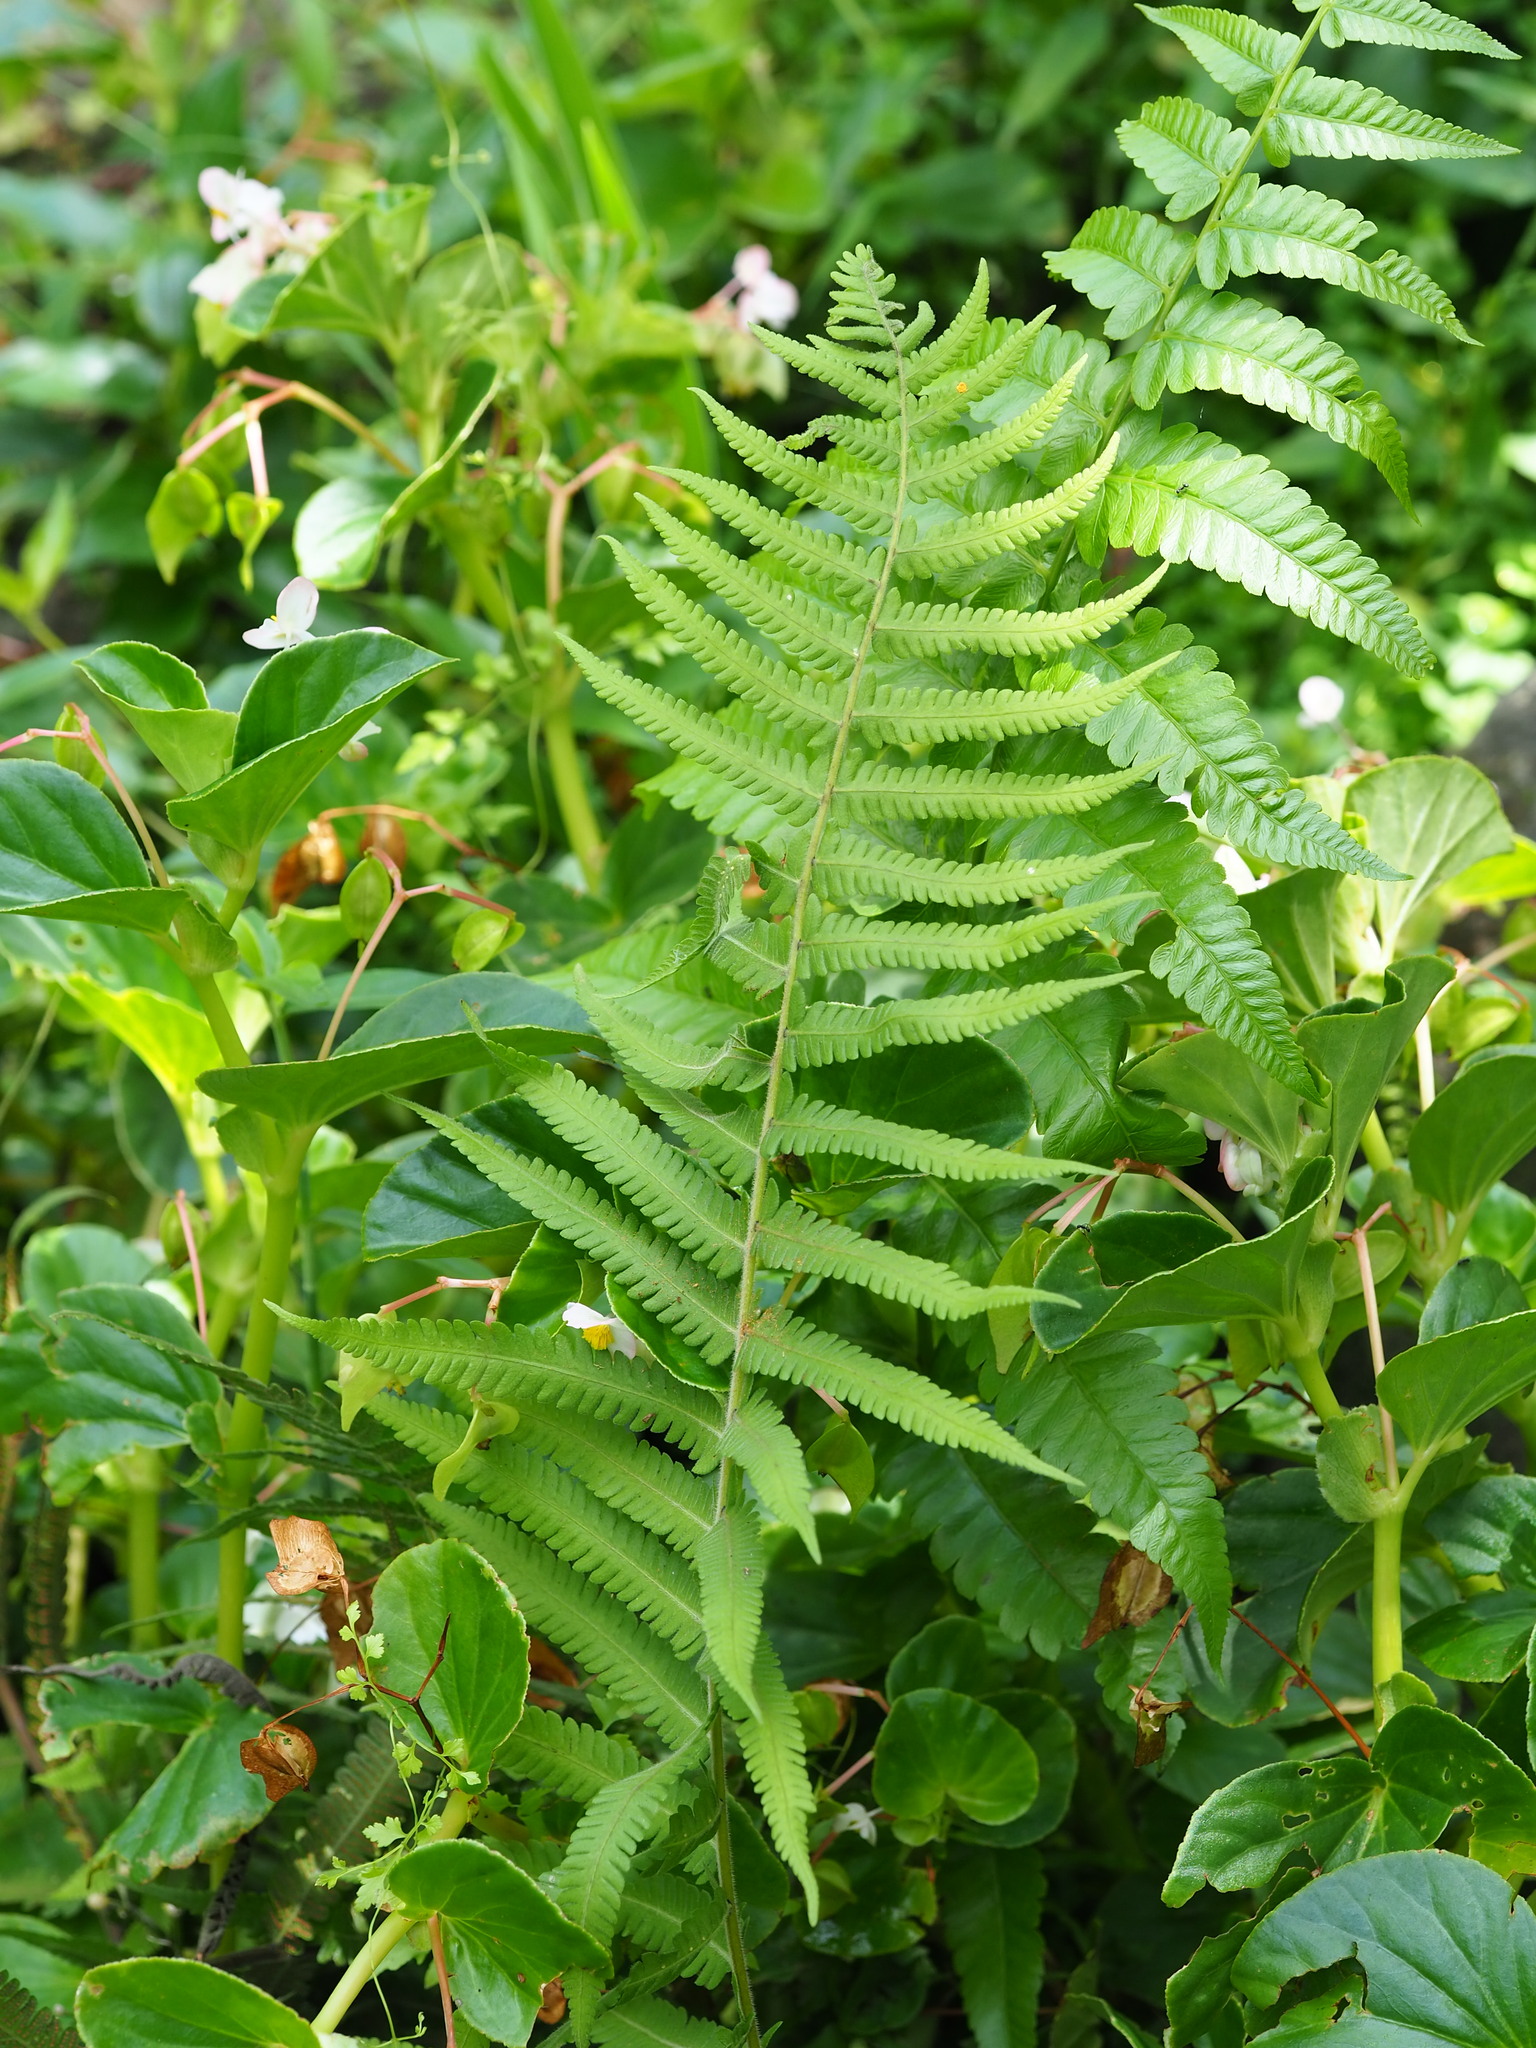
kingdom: Plantae
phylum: Tracheophyta
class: Polypodiopsida
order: Polypodiales
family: Thelypteridaceae
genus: Christella
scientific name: Christella dentata
